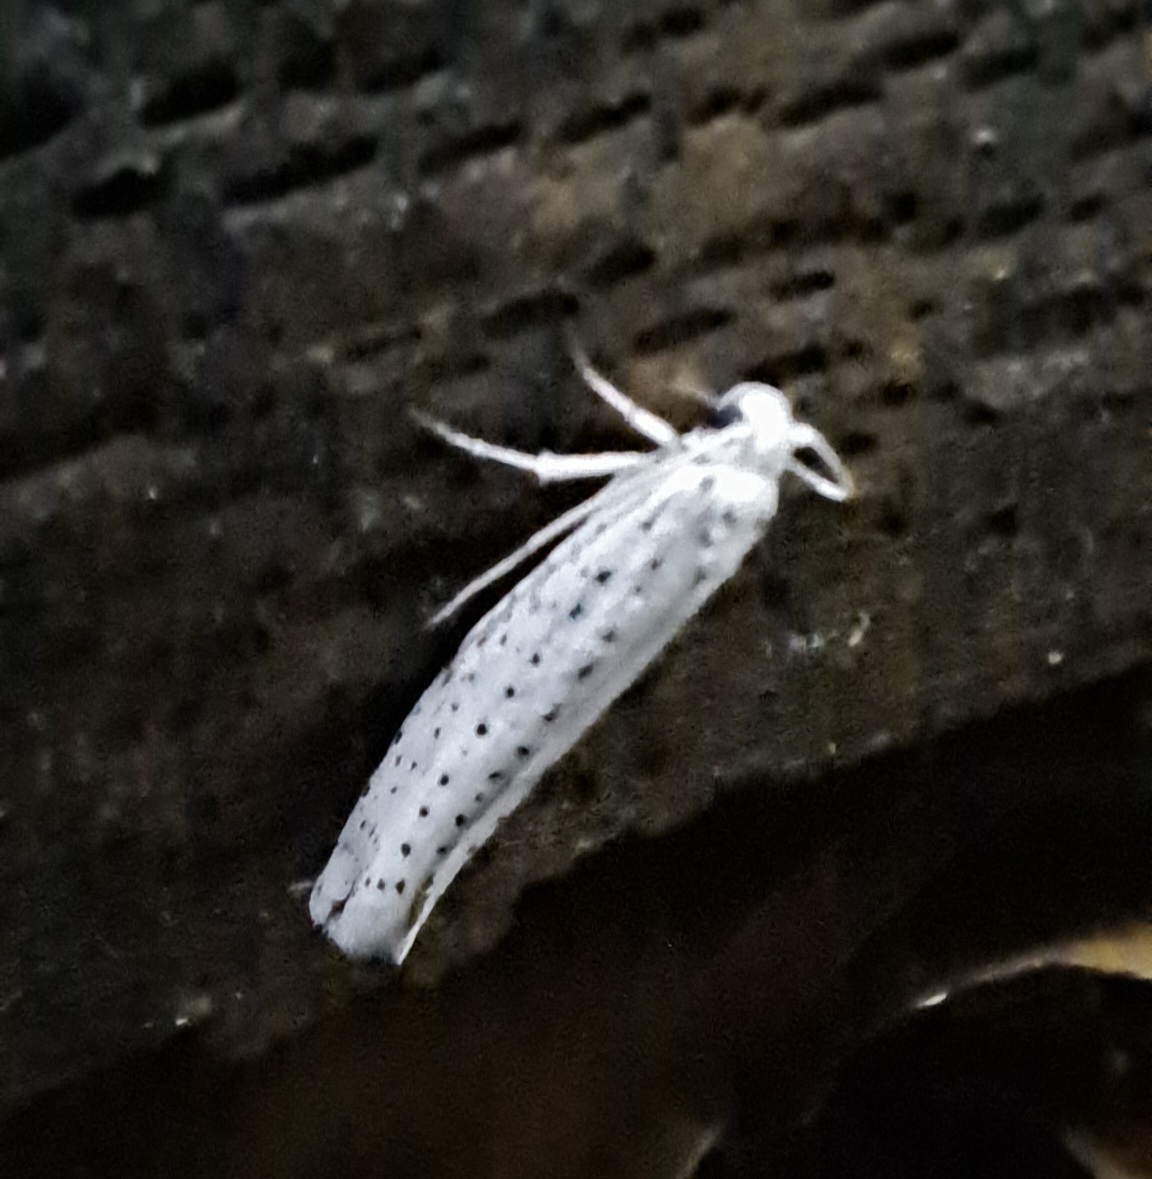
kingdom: Animalia
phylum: Arthropoda
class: Insecta
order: Lepidoptera
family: Yponomeutidae
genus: Yponomeuta
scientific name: Yponomeuta evonymella
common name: Bird-cherry ermine
